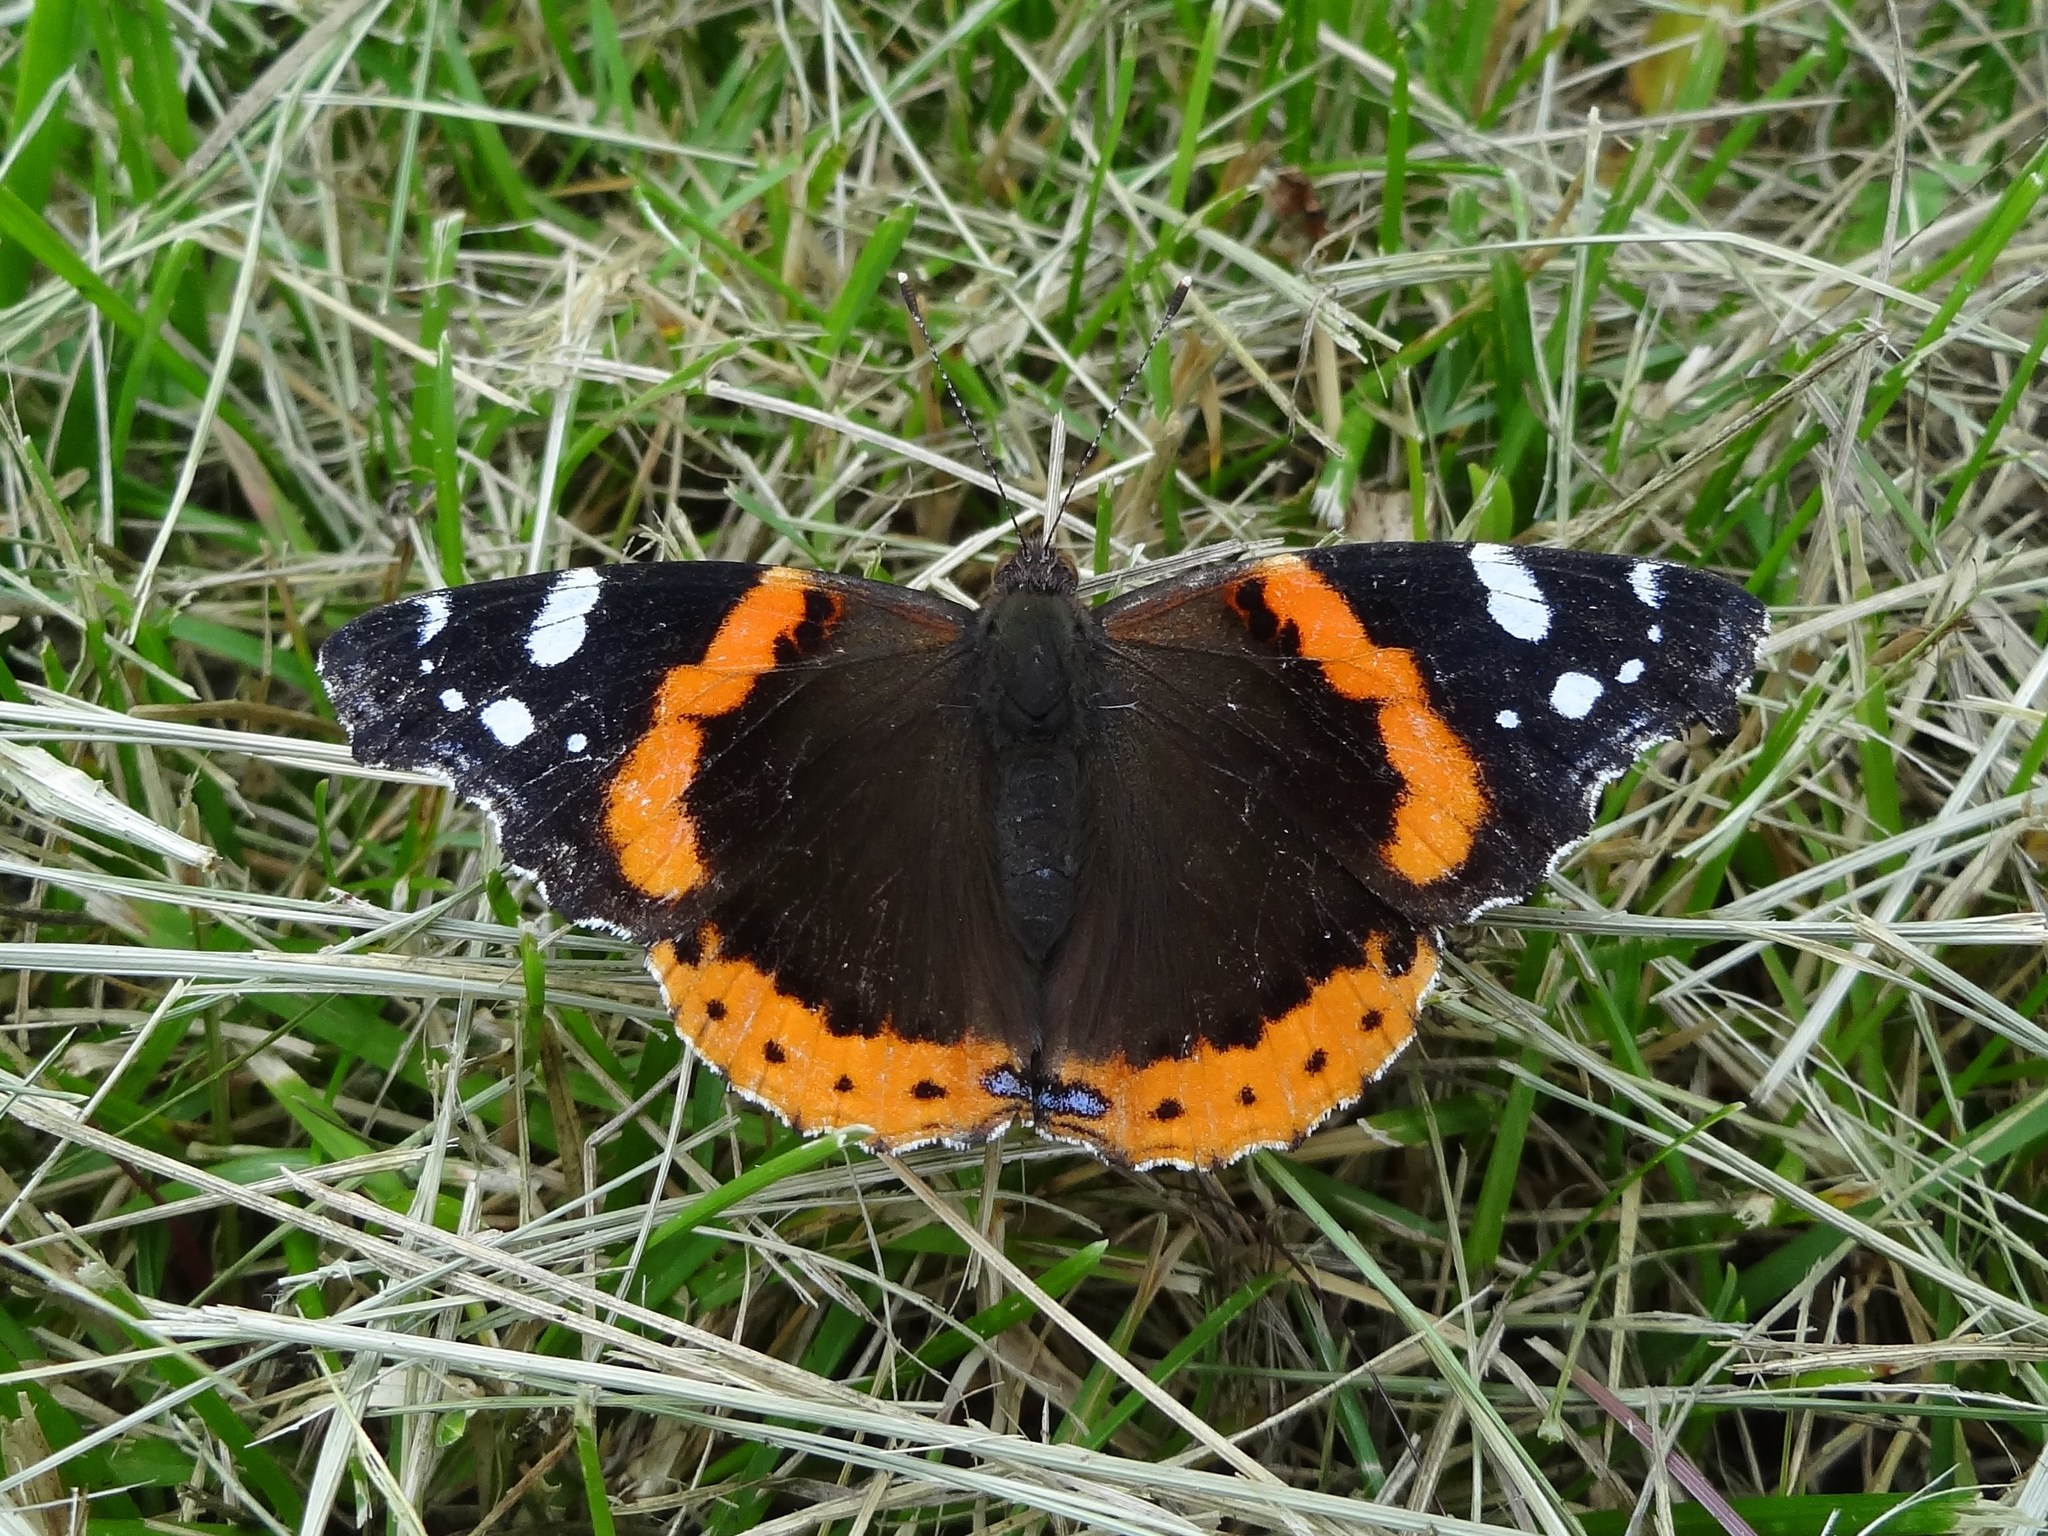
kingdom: Animalia
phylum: Arthropoda
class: Insecta
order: Lepidoptera
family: Nymphalidae
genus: Vanessa
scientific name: Vanessa atalanta
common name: Red admiral
